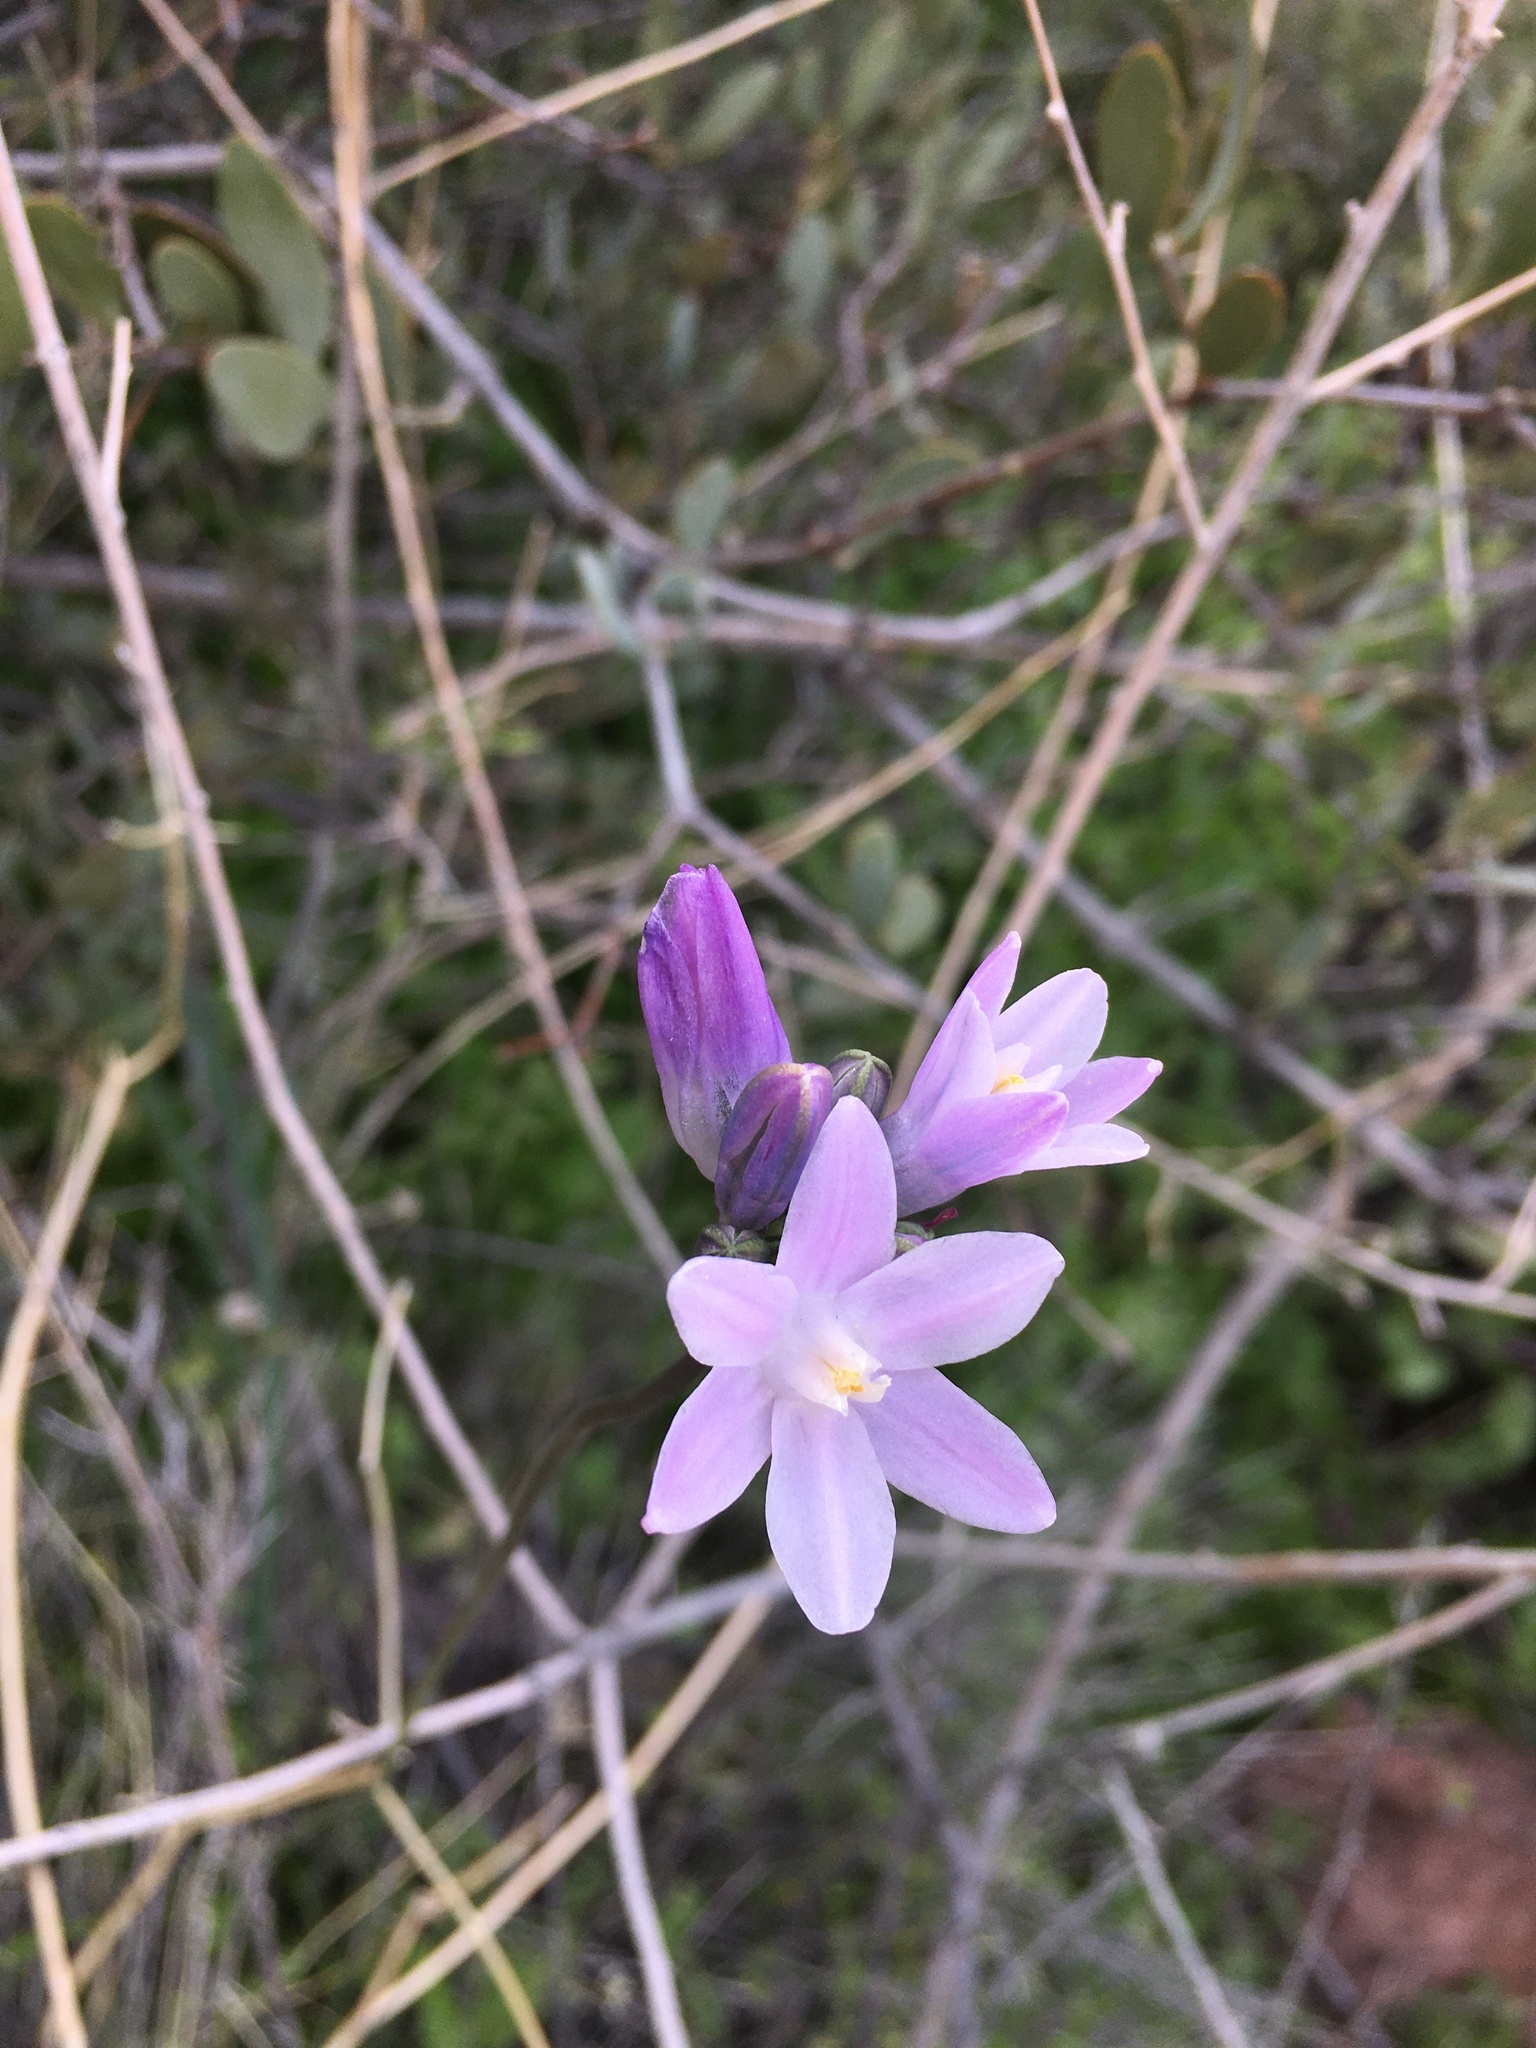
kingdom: Plantae
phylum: Tracheophyta
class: Liliopsida
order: Asparagales
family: Asparagaceae
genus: Dipterostemon
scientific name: Dipterostemon capitatus
